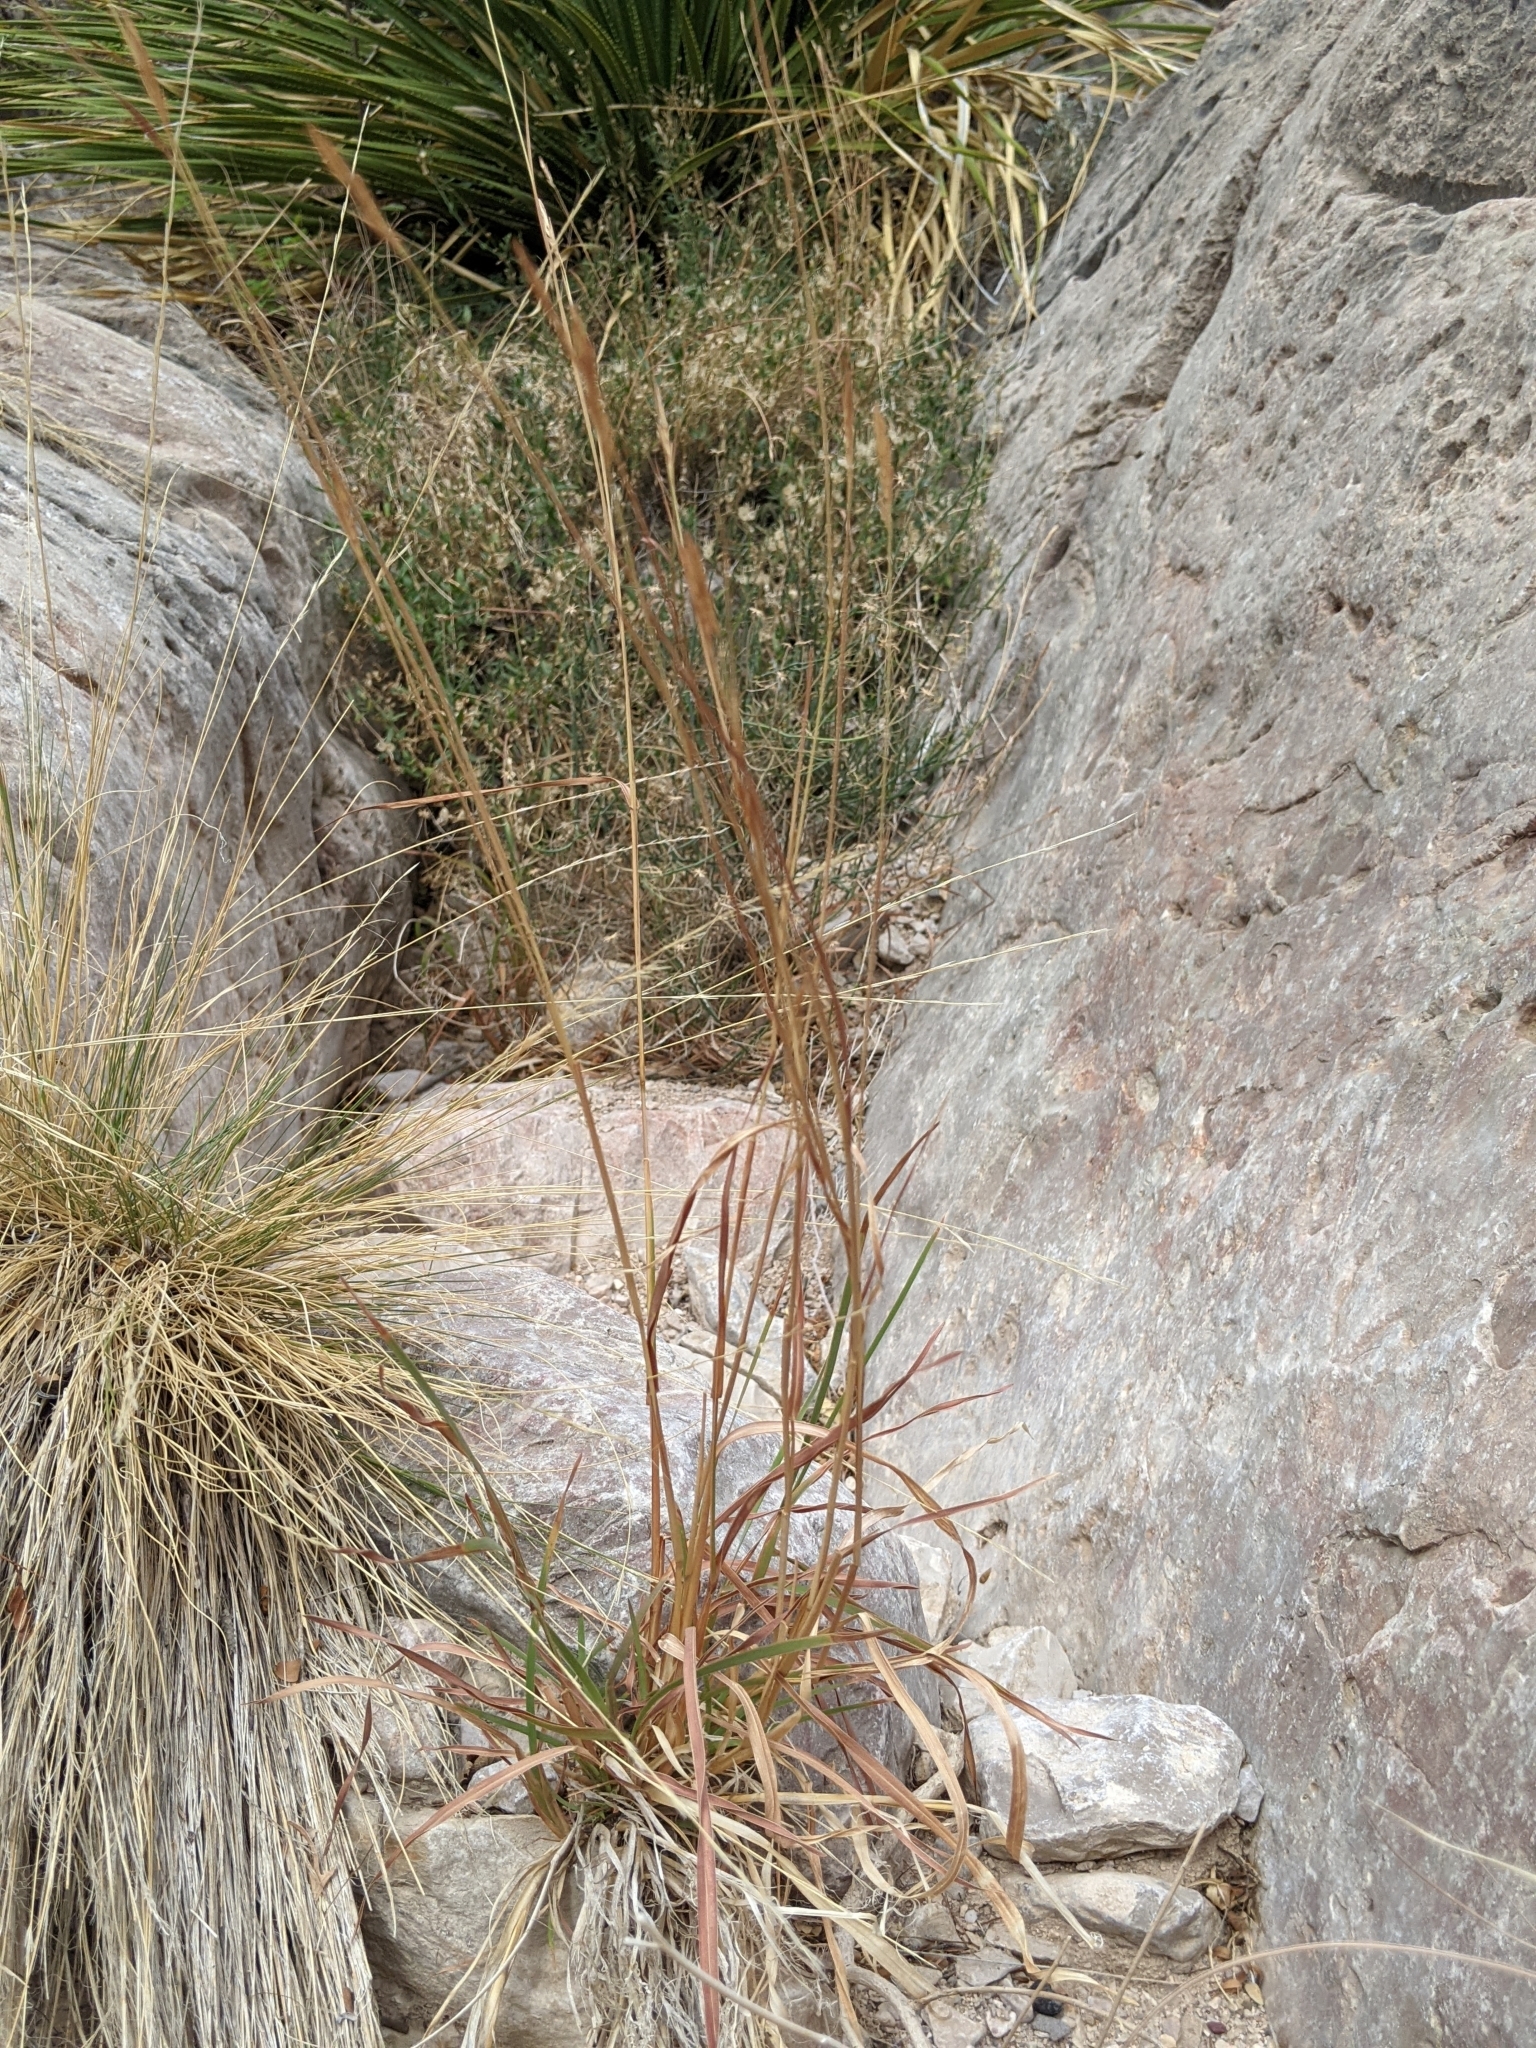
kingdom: Plantae
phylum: Tracheophyta
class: Liliopsida
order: Poales
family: Poaceae
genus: Heteropogon
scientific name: Heteropogon contortus
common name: Tanglehead
